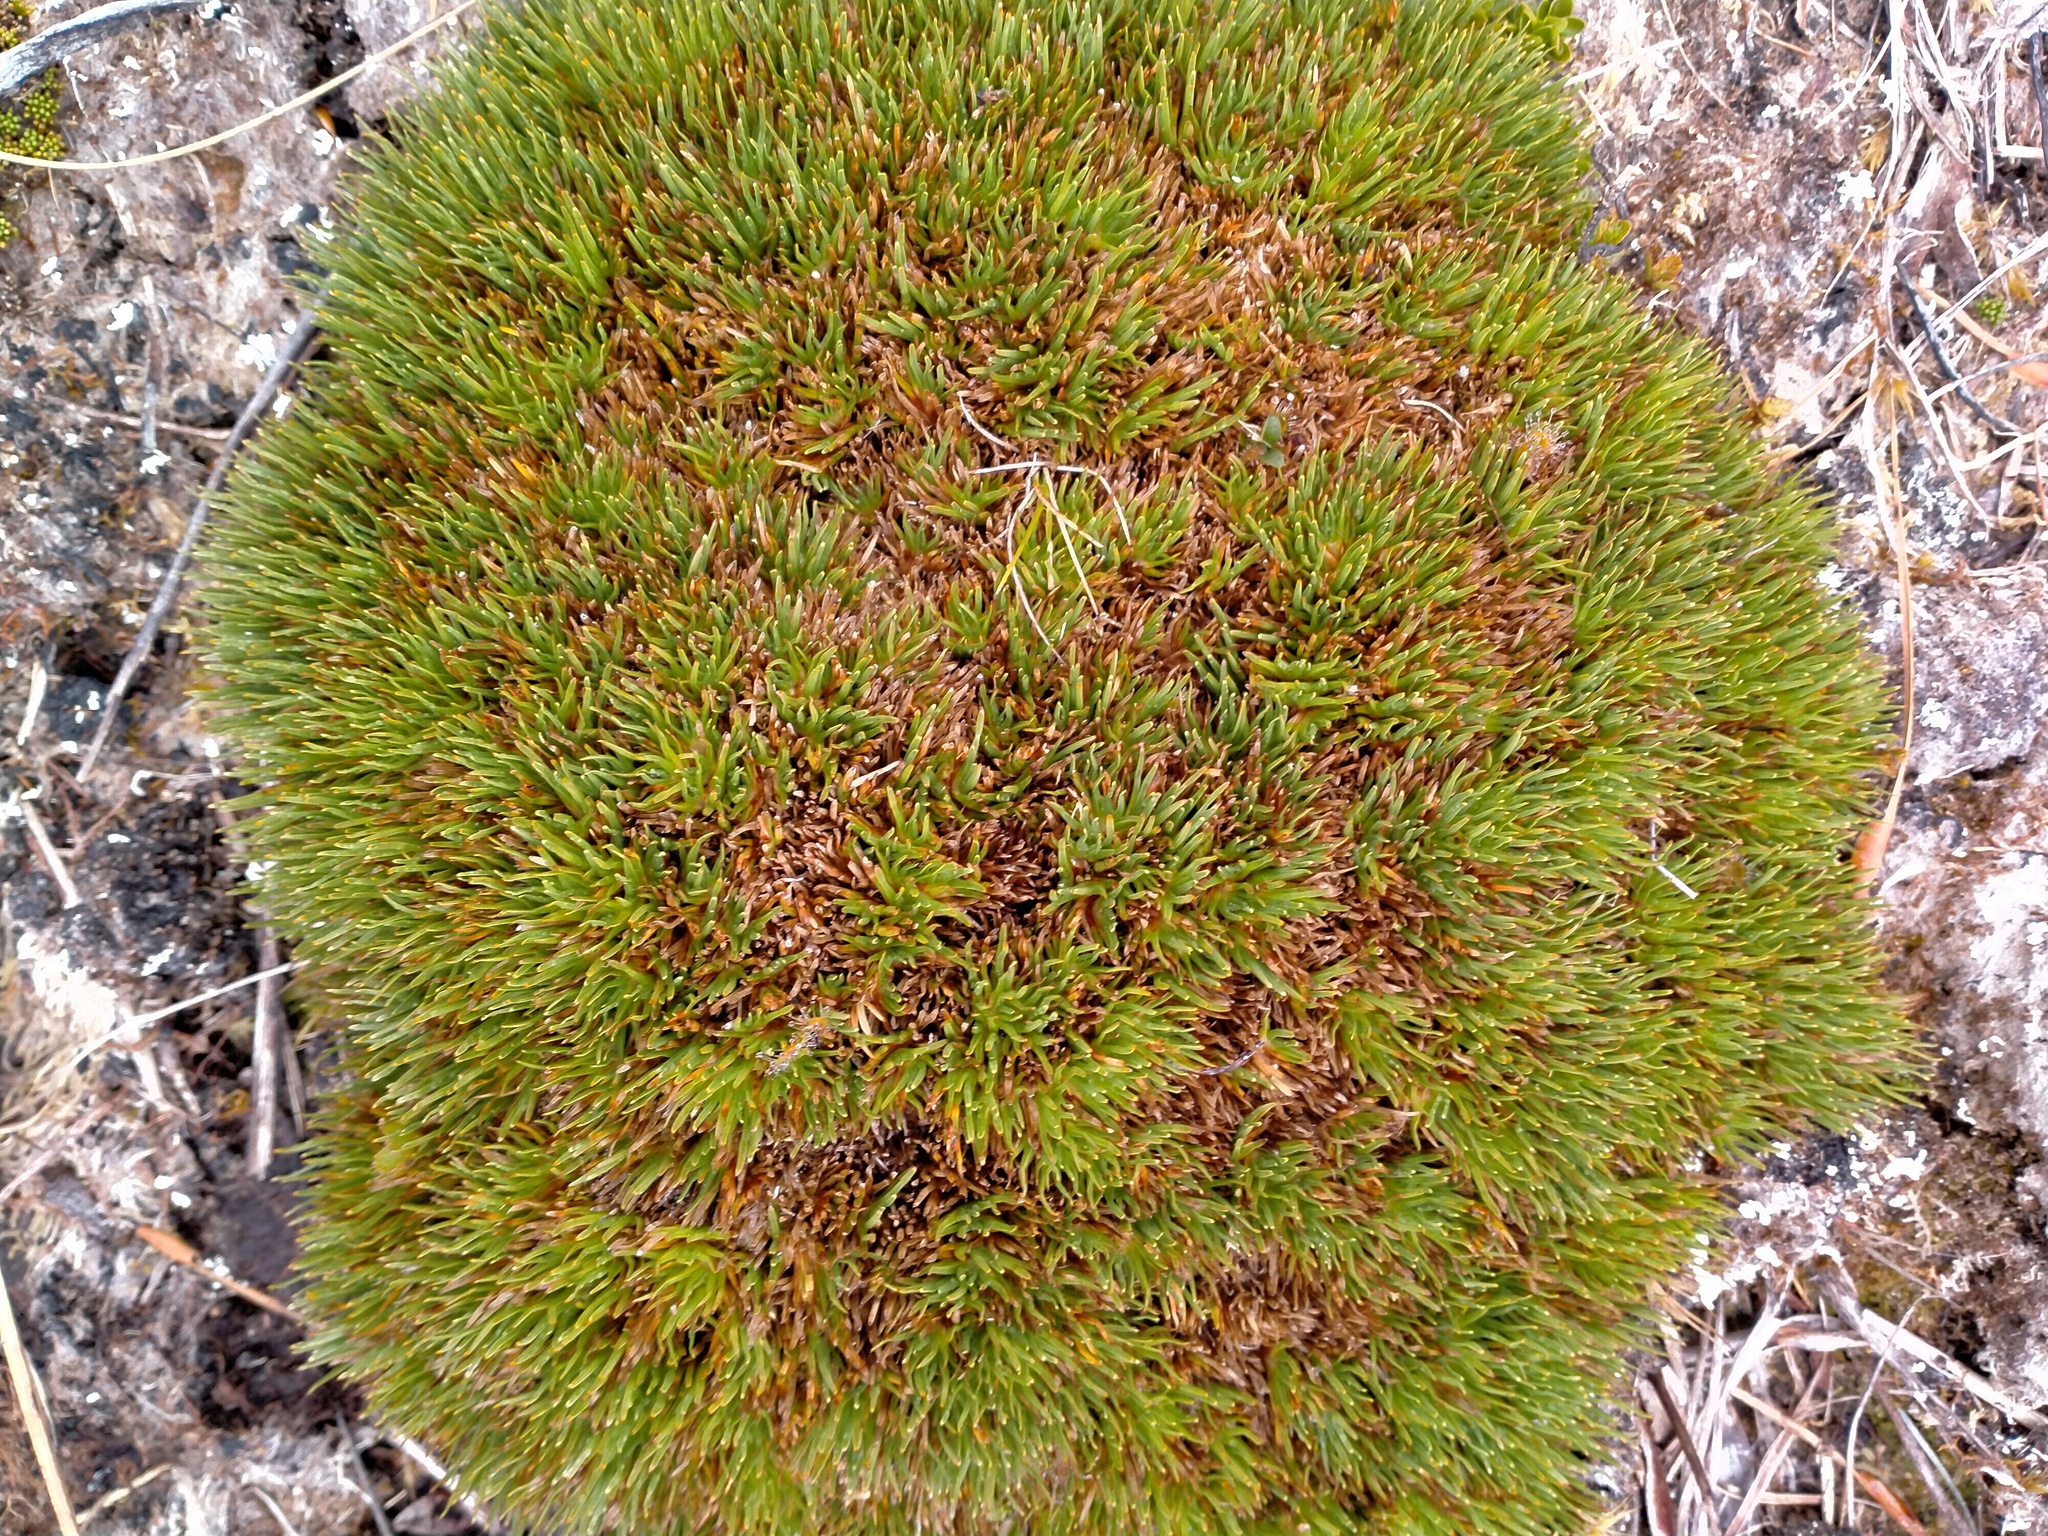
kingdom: Plantae
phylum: Tracheophyta
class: Liliopsida
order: Poales
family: Cyperaceae
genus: Oreobolus
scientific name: Oreobolus pectinatus
